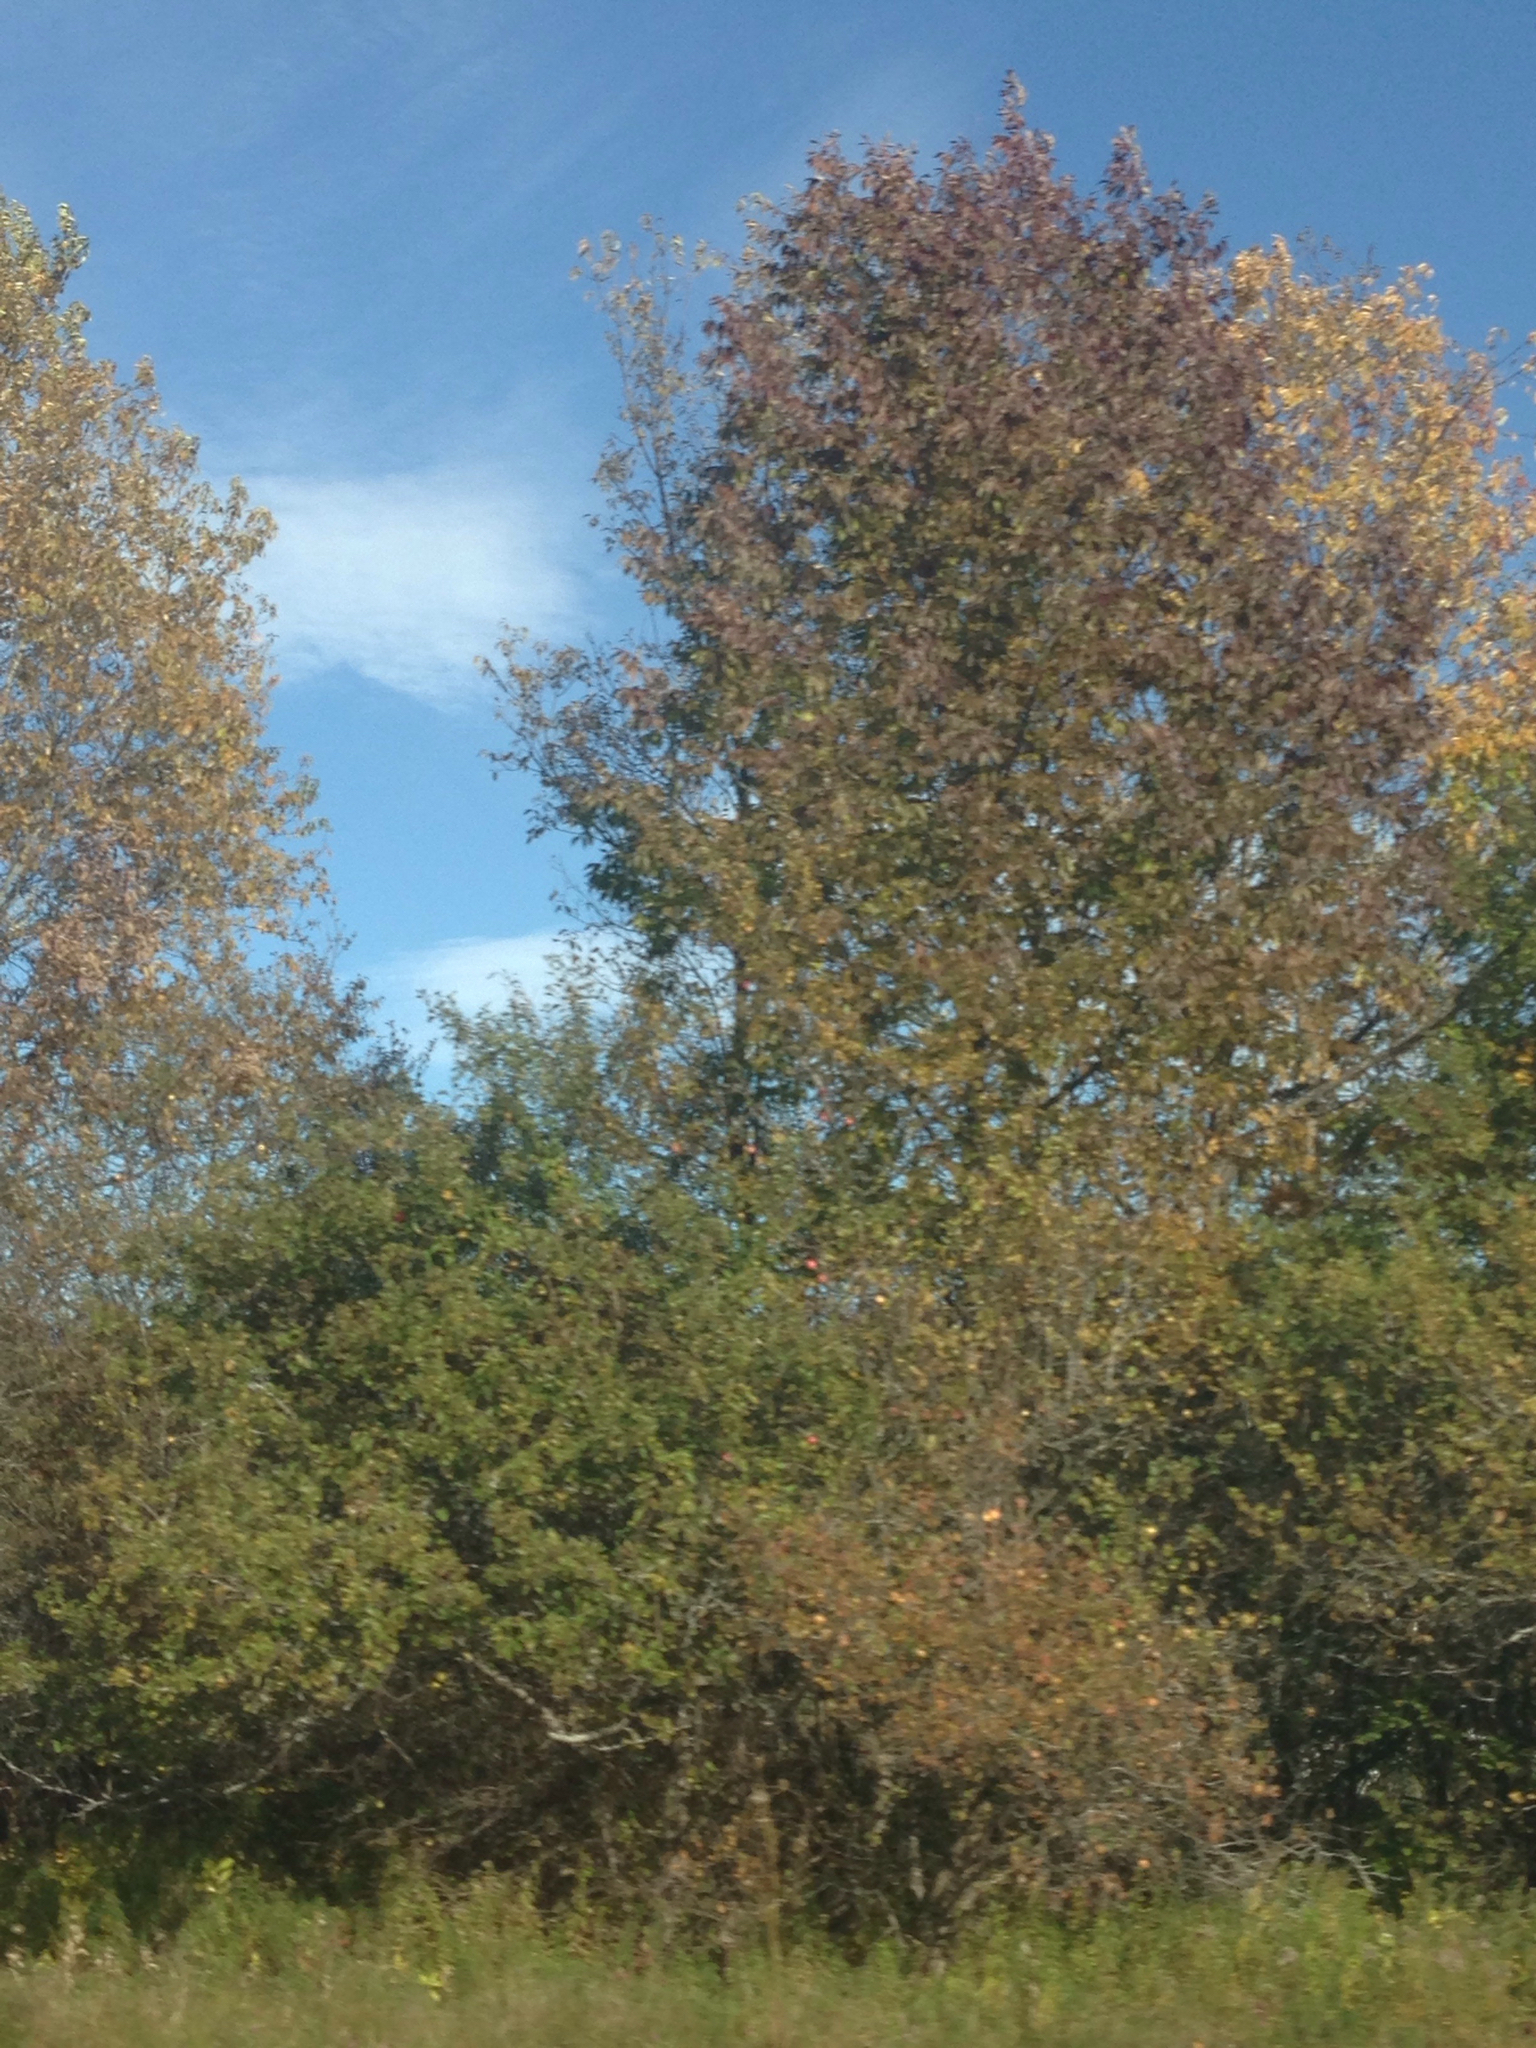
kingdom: Plantae
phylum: Tracheophyta
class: Magnoliopsida
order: Lamiales
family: Oleaceae
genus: Fraxinus
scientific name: Fraxinus americana
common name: White ash
